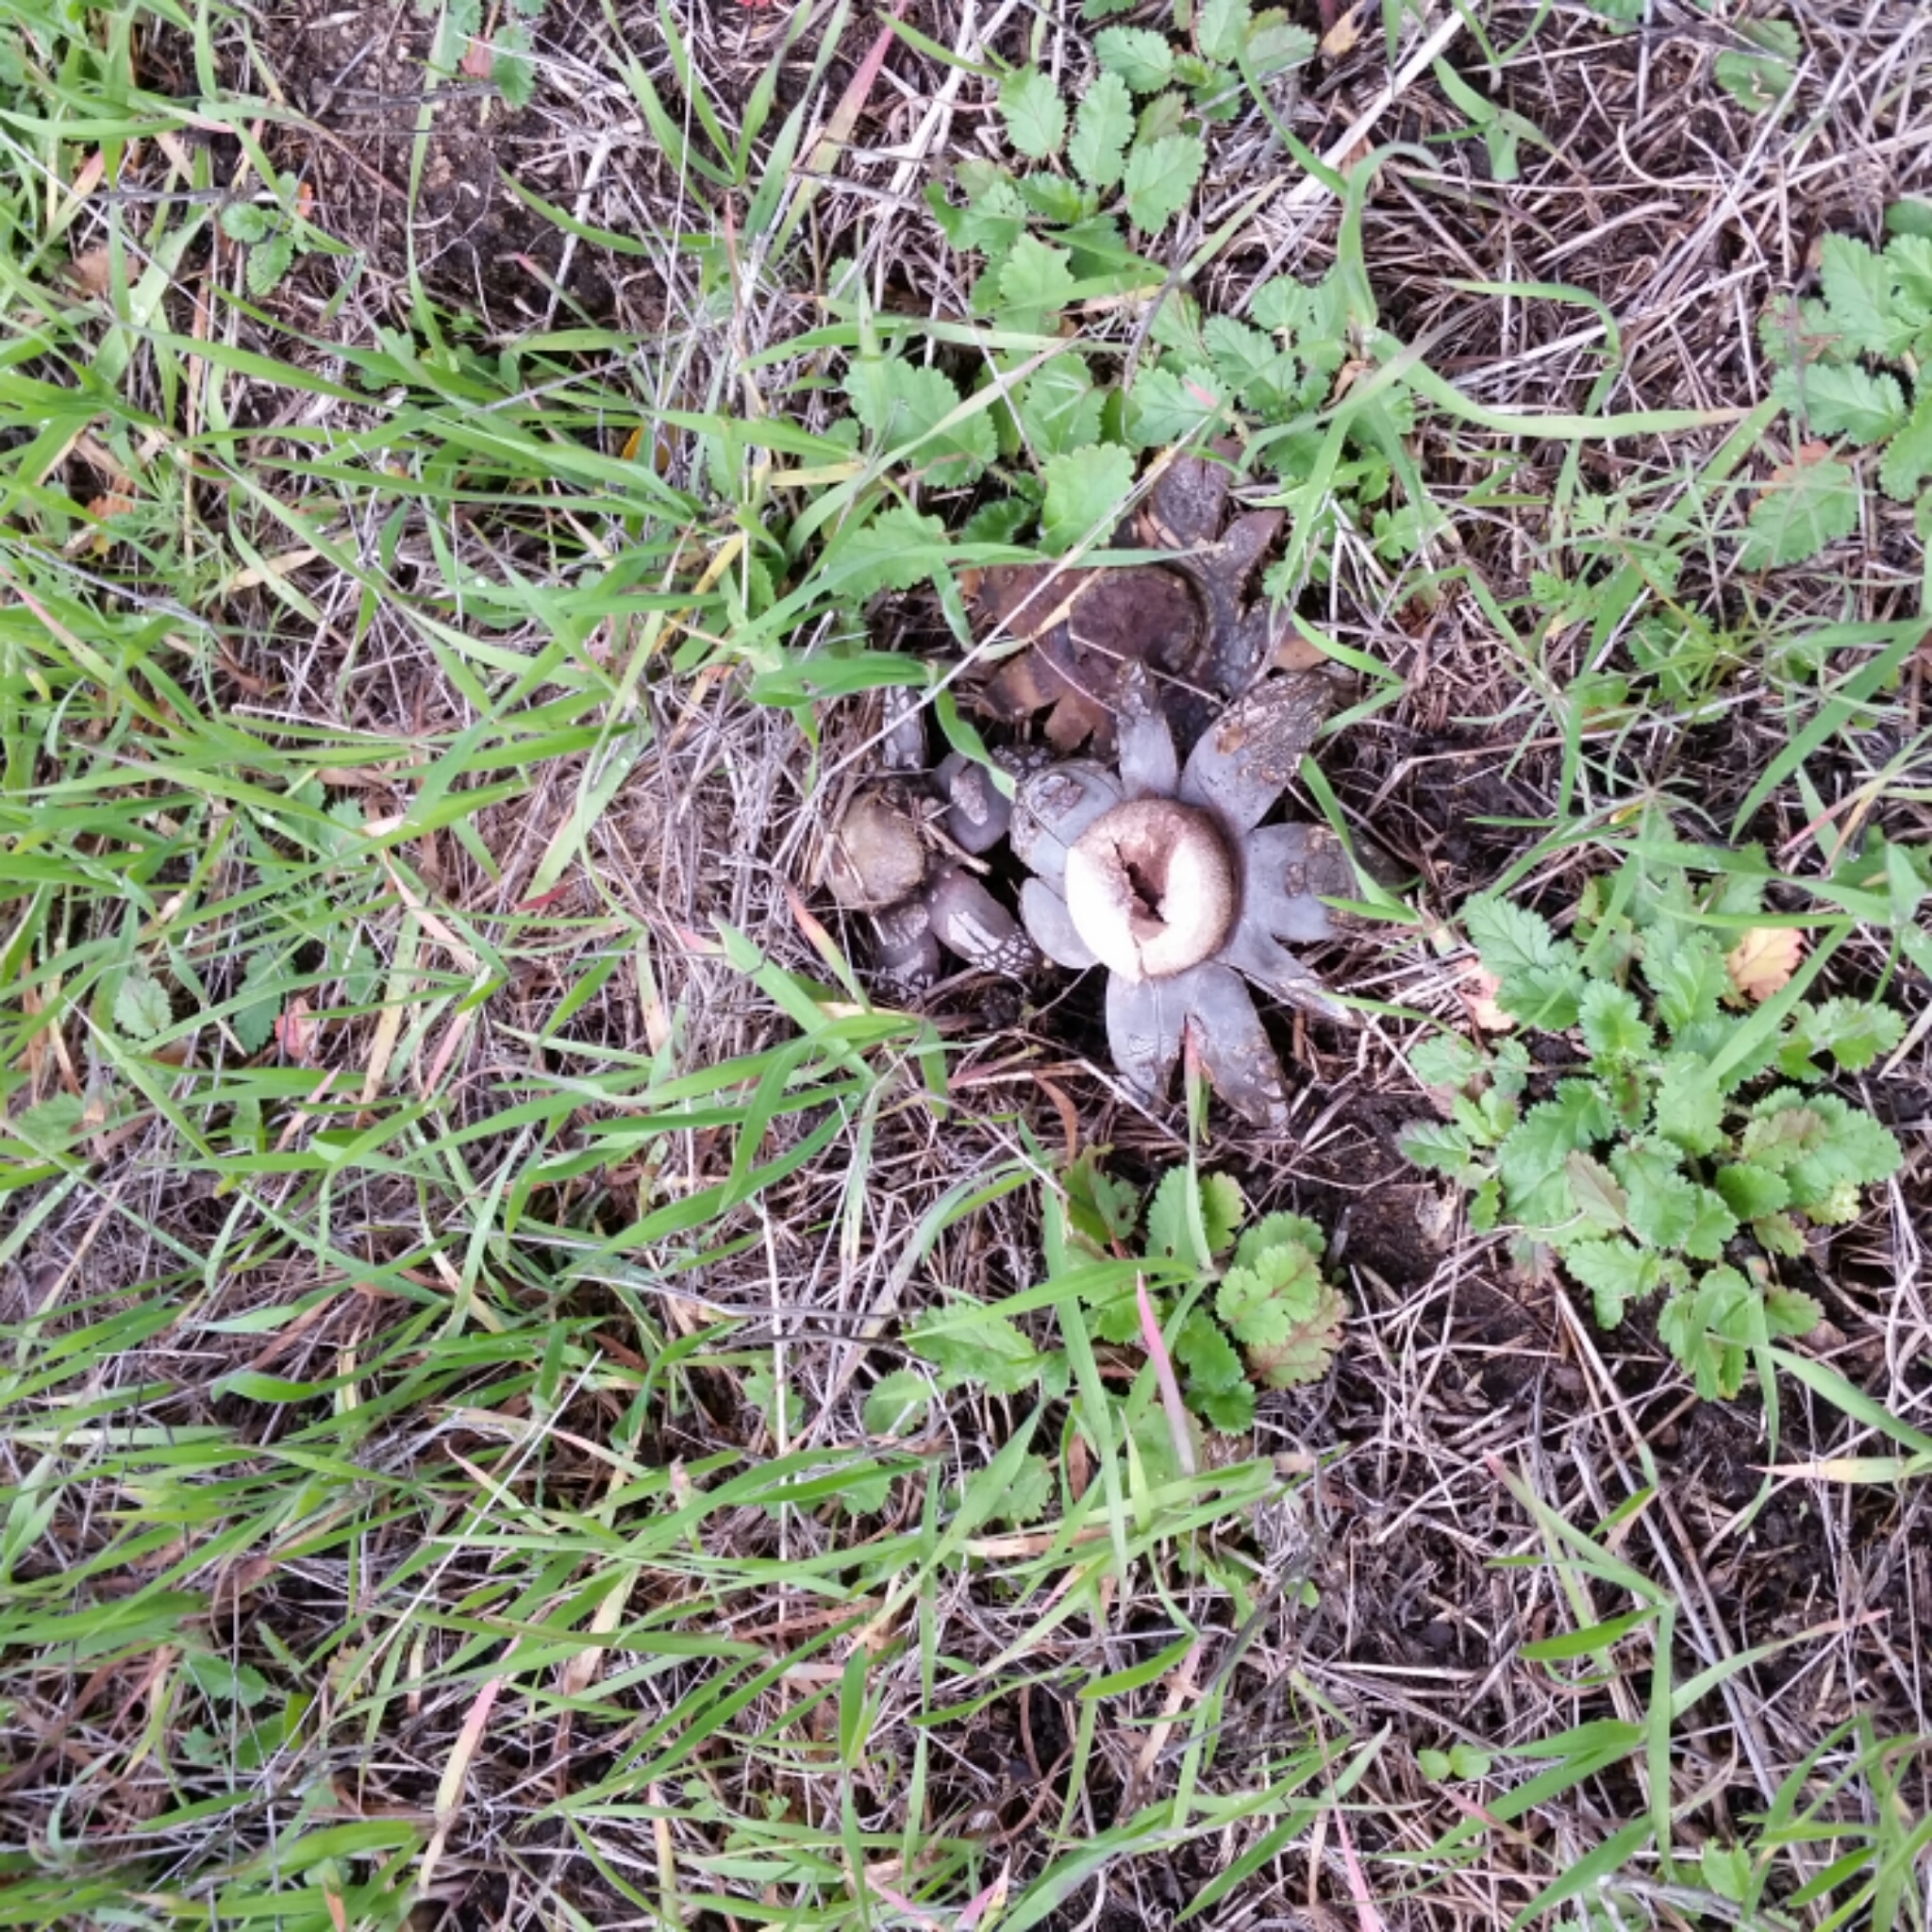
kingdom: Fungi
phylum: Basidiomycota
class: Agaricomycetes
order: Boletales
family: Diplocystidiaceae
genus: Astraeus
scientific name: Astraeus hygrometricus
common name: Barometer earthstar
